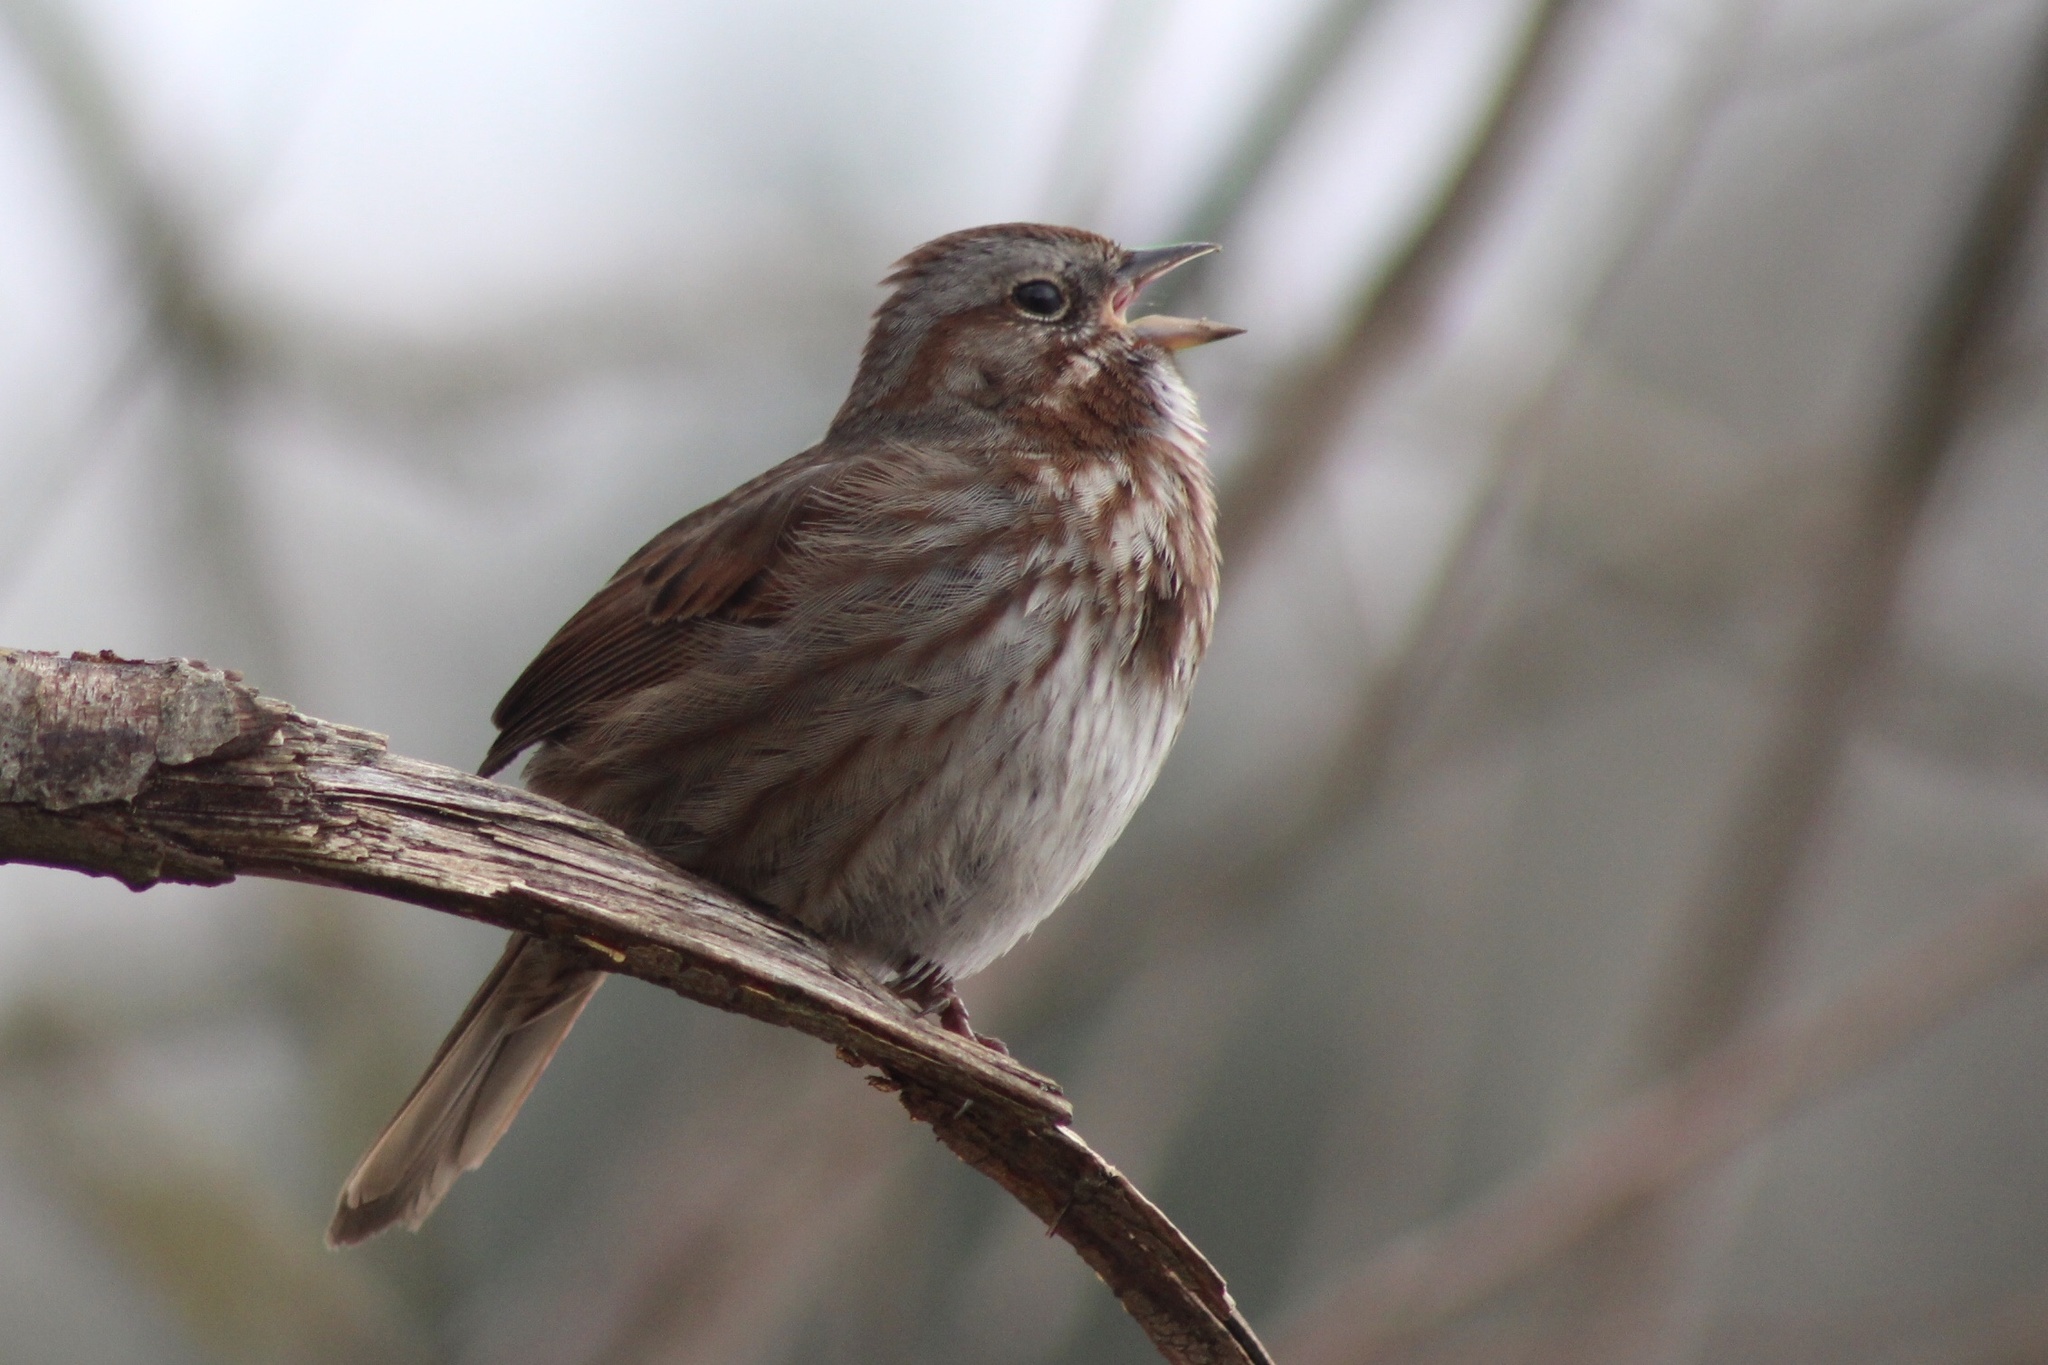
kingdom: Animalia
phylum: Chordata
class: Aves
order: Passeriformes
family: Passerellidae
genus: Melospiza
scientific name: Melospiza melodia
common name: Song sparrow
